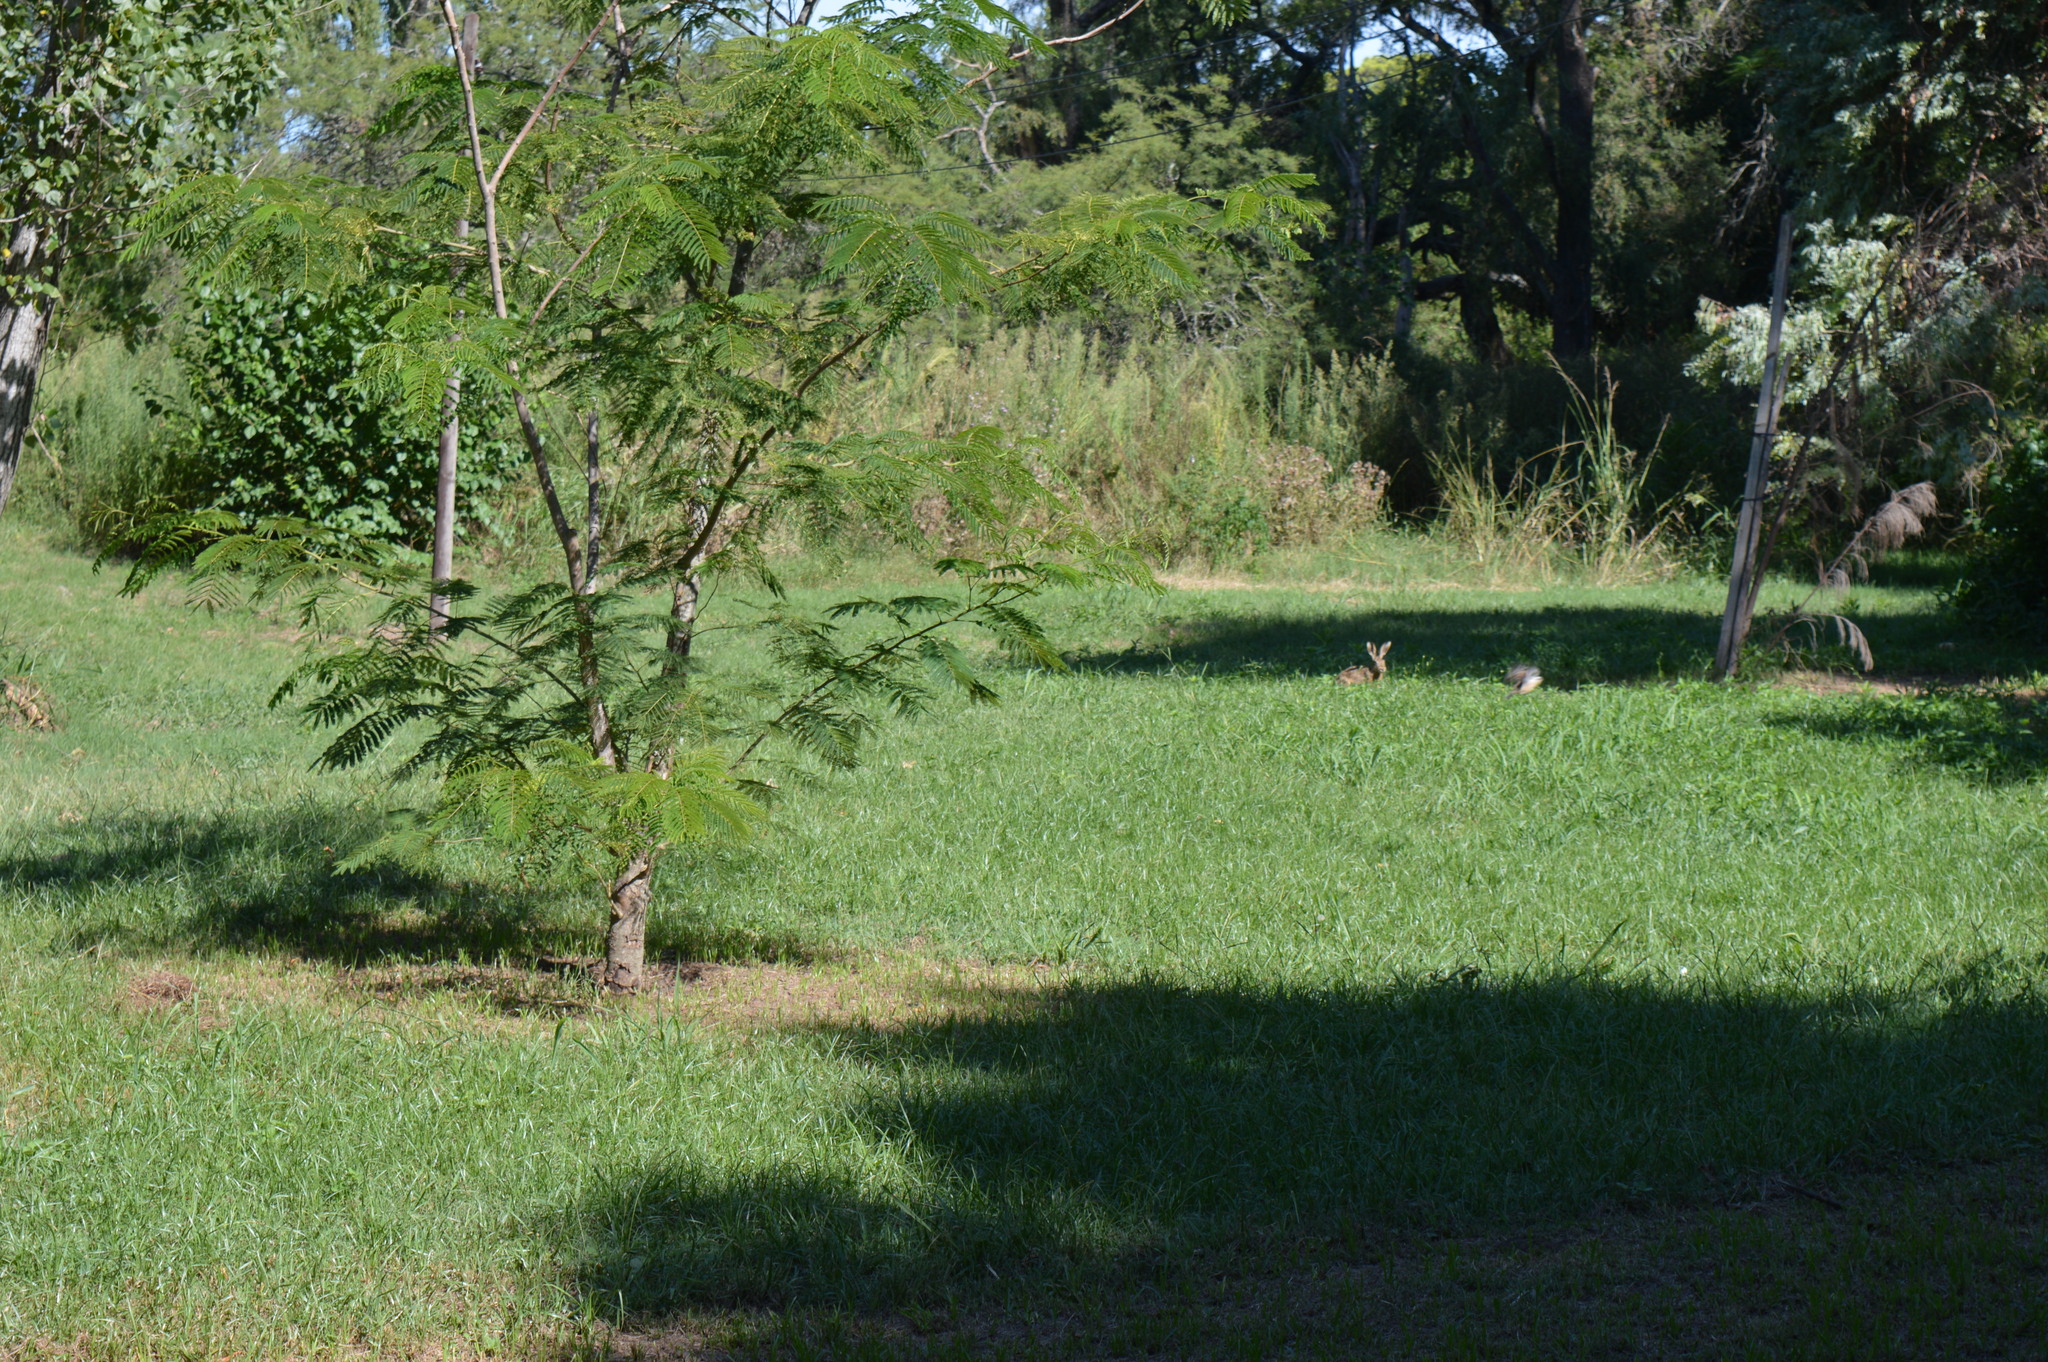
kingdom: Animalia
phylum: Chordata
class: Mammalia
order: Lagomorpha
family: Leporidae
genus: Lepus
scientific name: Lepus europaeus
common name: European hare
